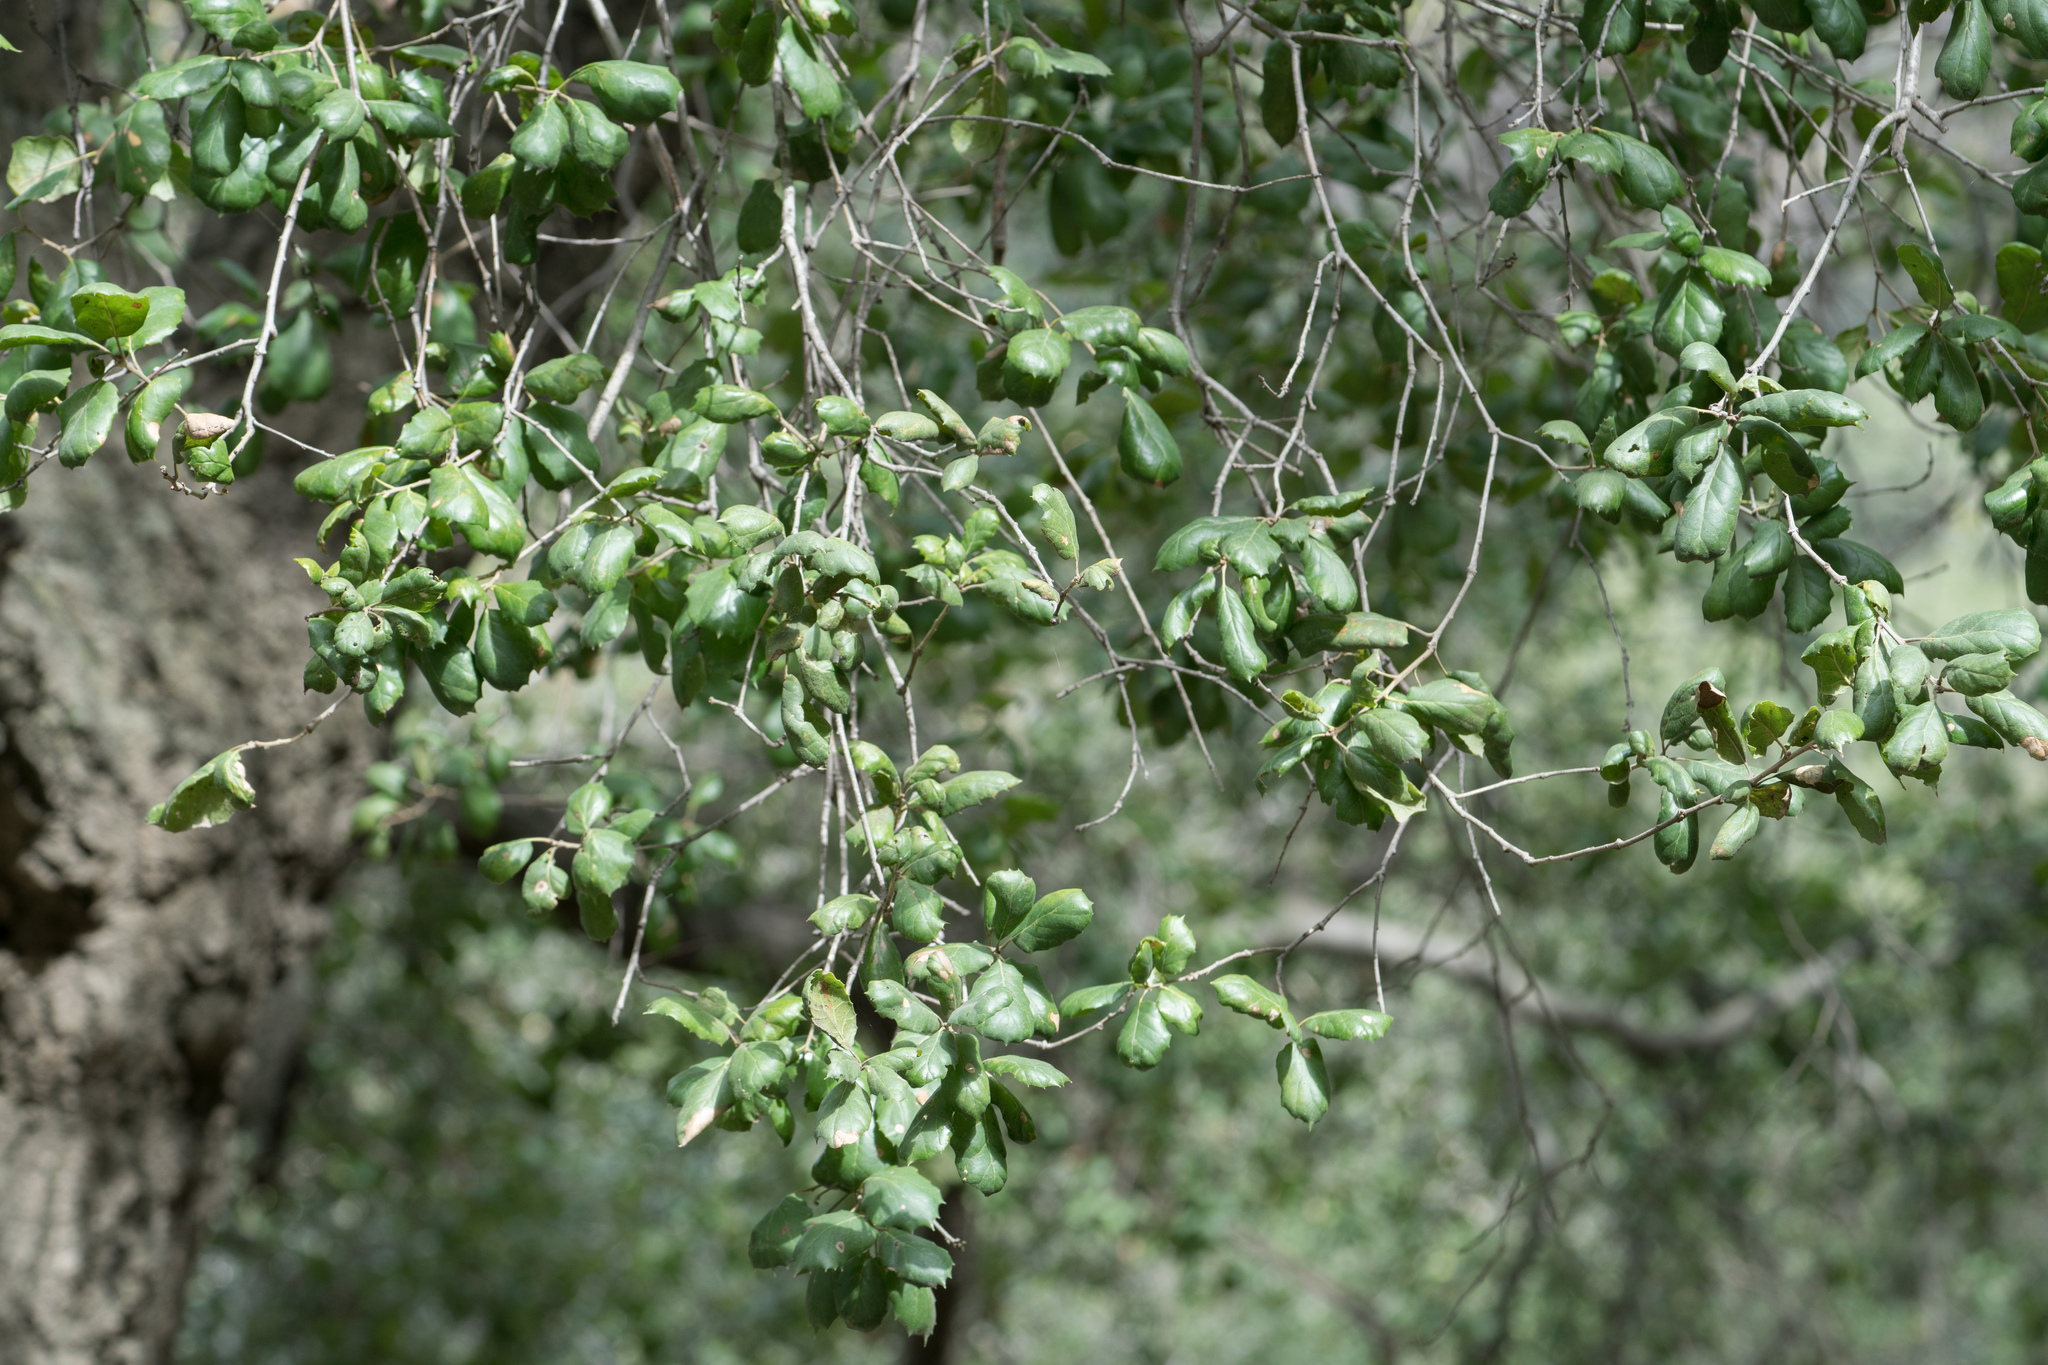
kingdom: Plantae
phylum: Tracheophyta
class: Magnoliopsida
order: Fagales
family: Fagaceae
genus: Quercus
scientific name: Quercus agrifolia
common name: California live oak
